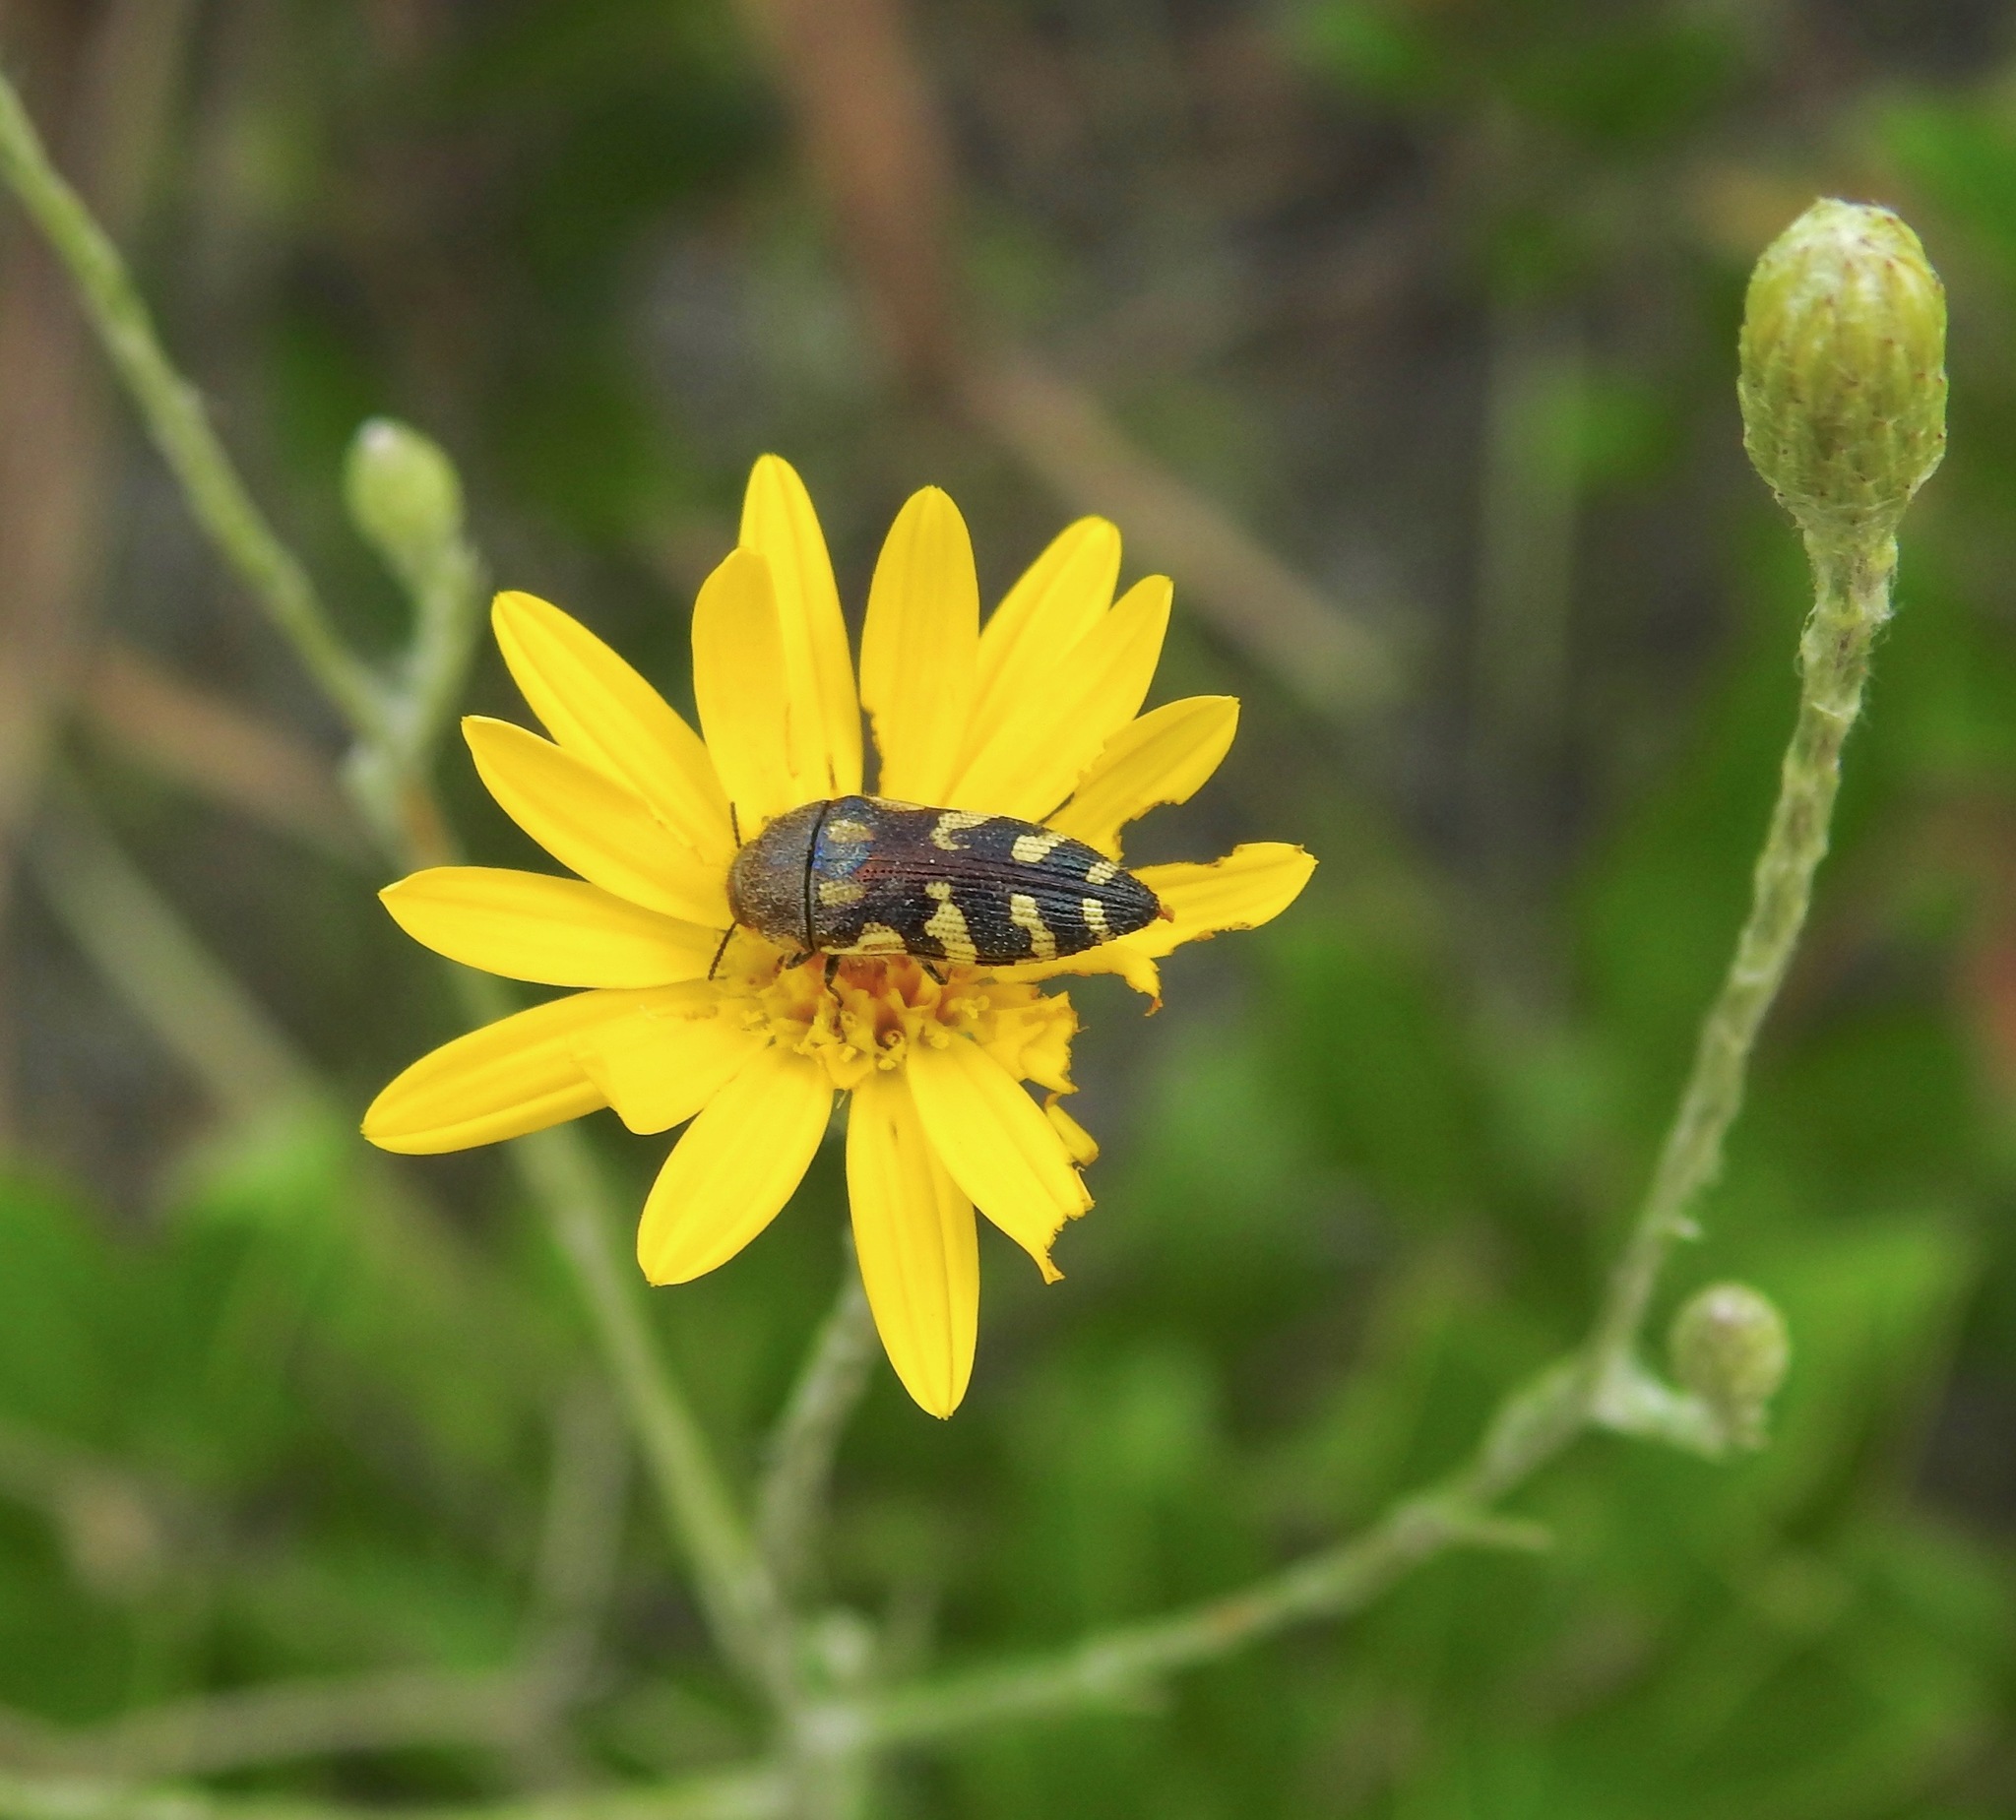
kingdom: Animalia
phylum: Arthropoda
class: Insecta
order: Coleoptera
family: Buprestidae
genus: Acmaeodera
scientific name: Acmaeodera pulchella
